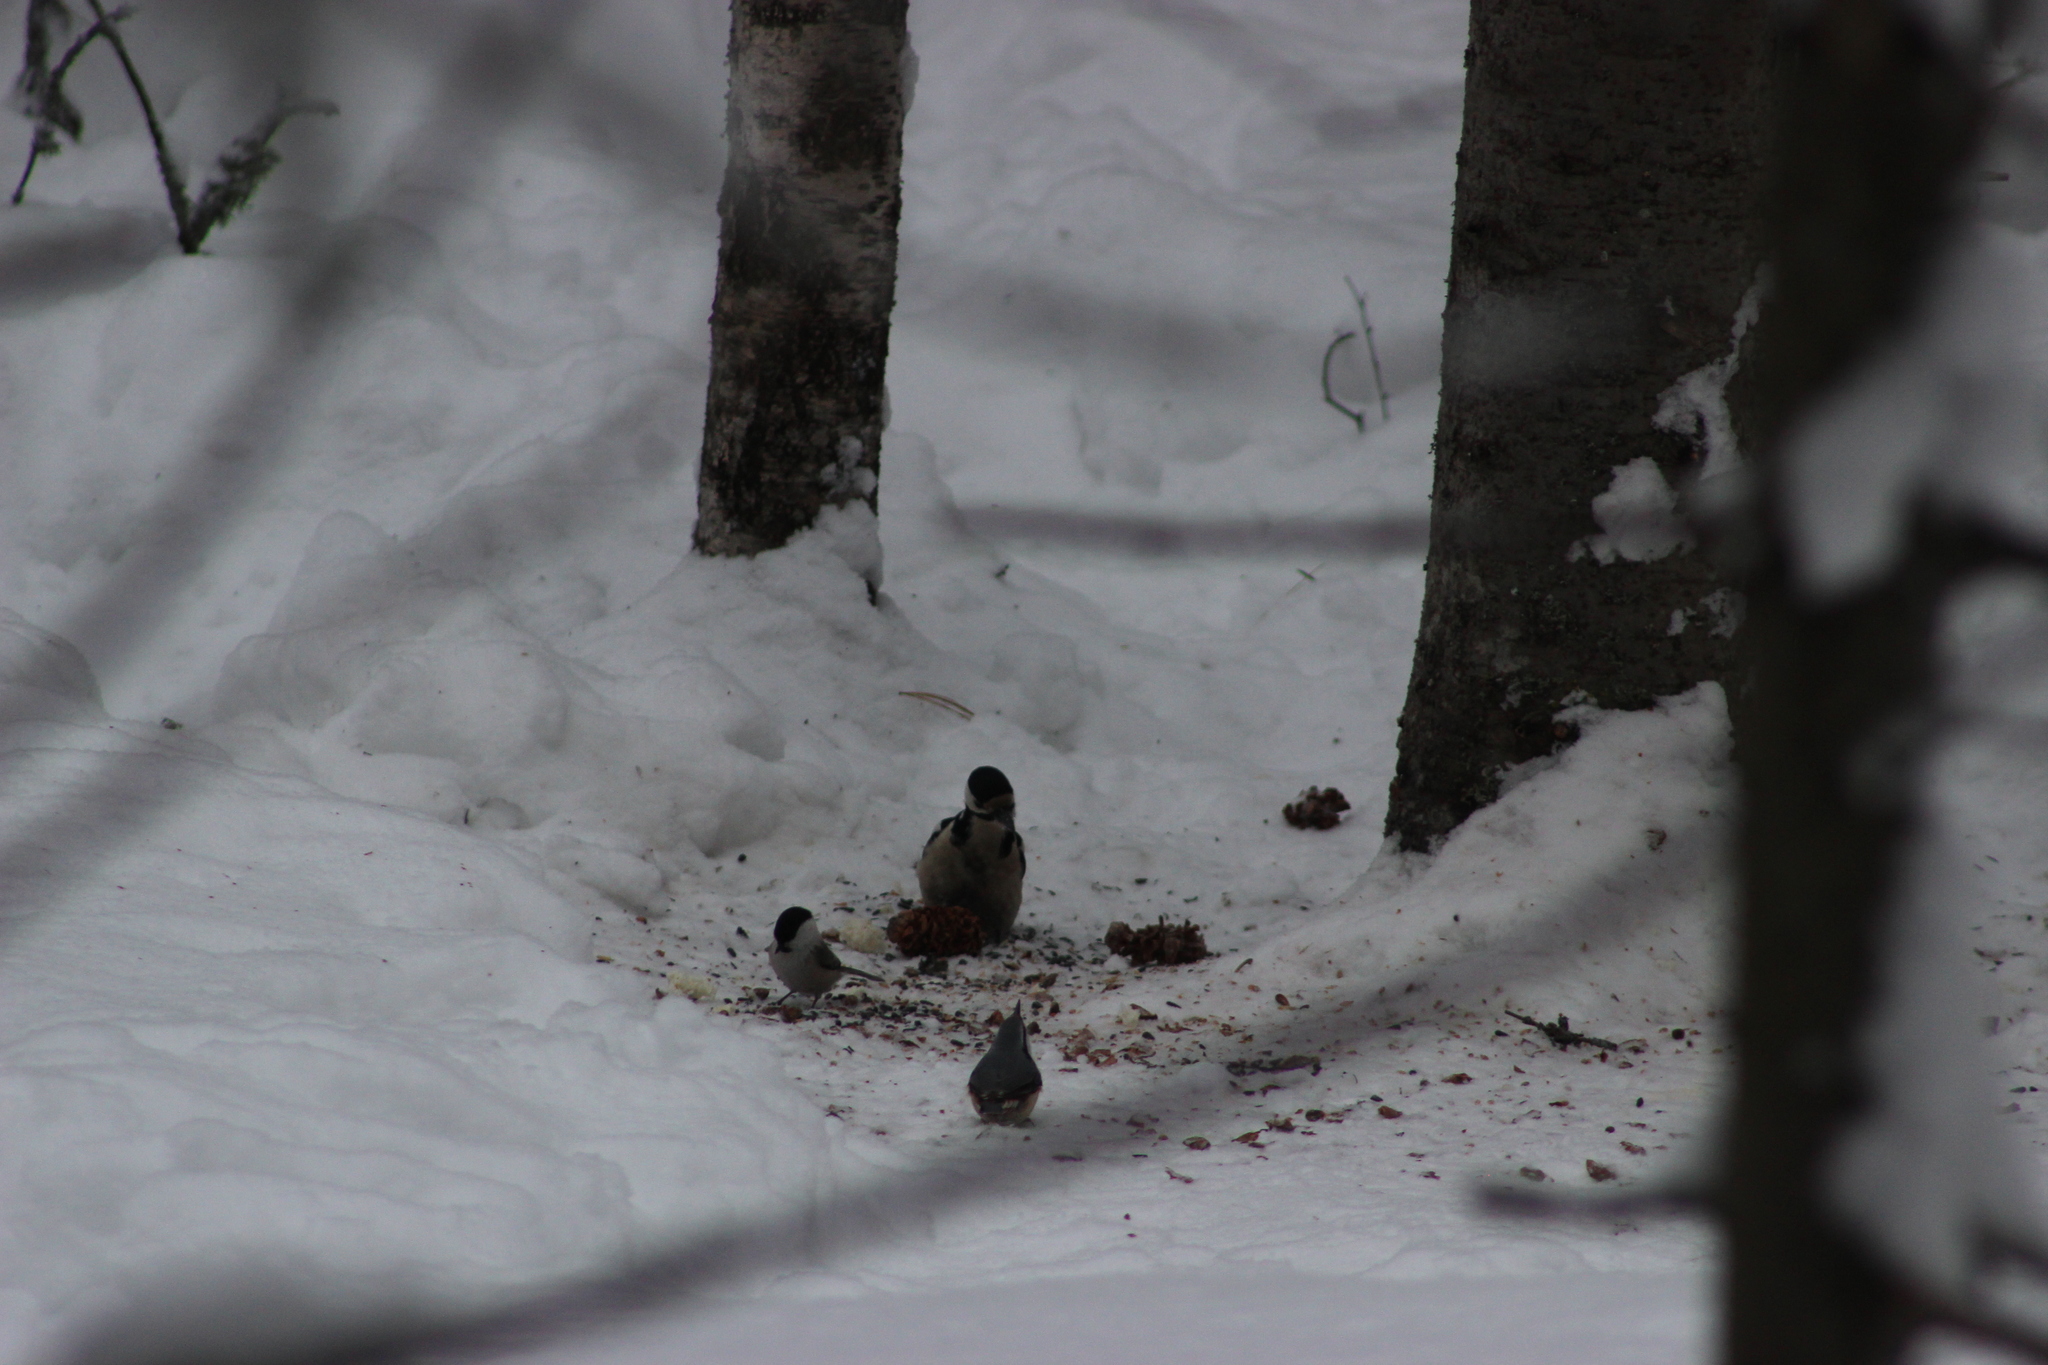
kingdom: Animalia
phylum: Chordata
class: Aves
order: Passeriformes
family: Sittidae
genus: Sitta
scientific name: Sitta europaea
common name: Eurasian nuthatch
